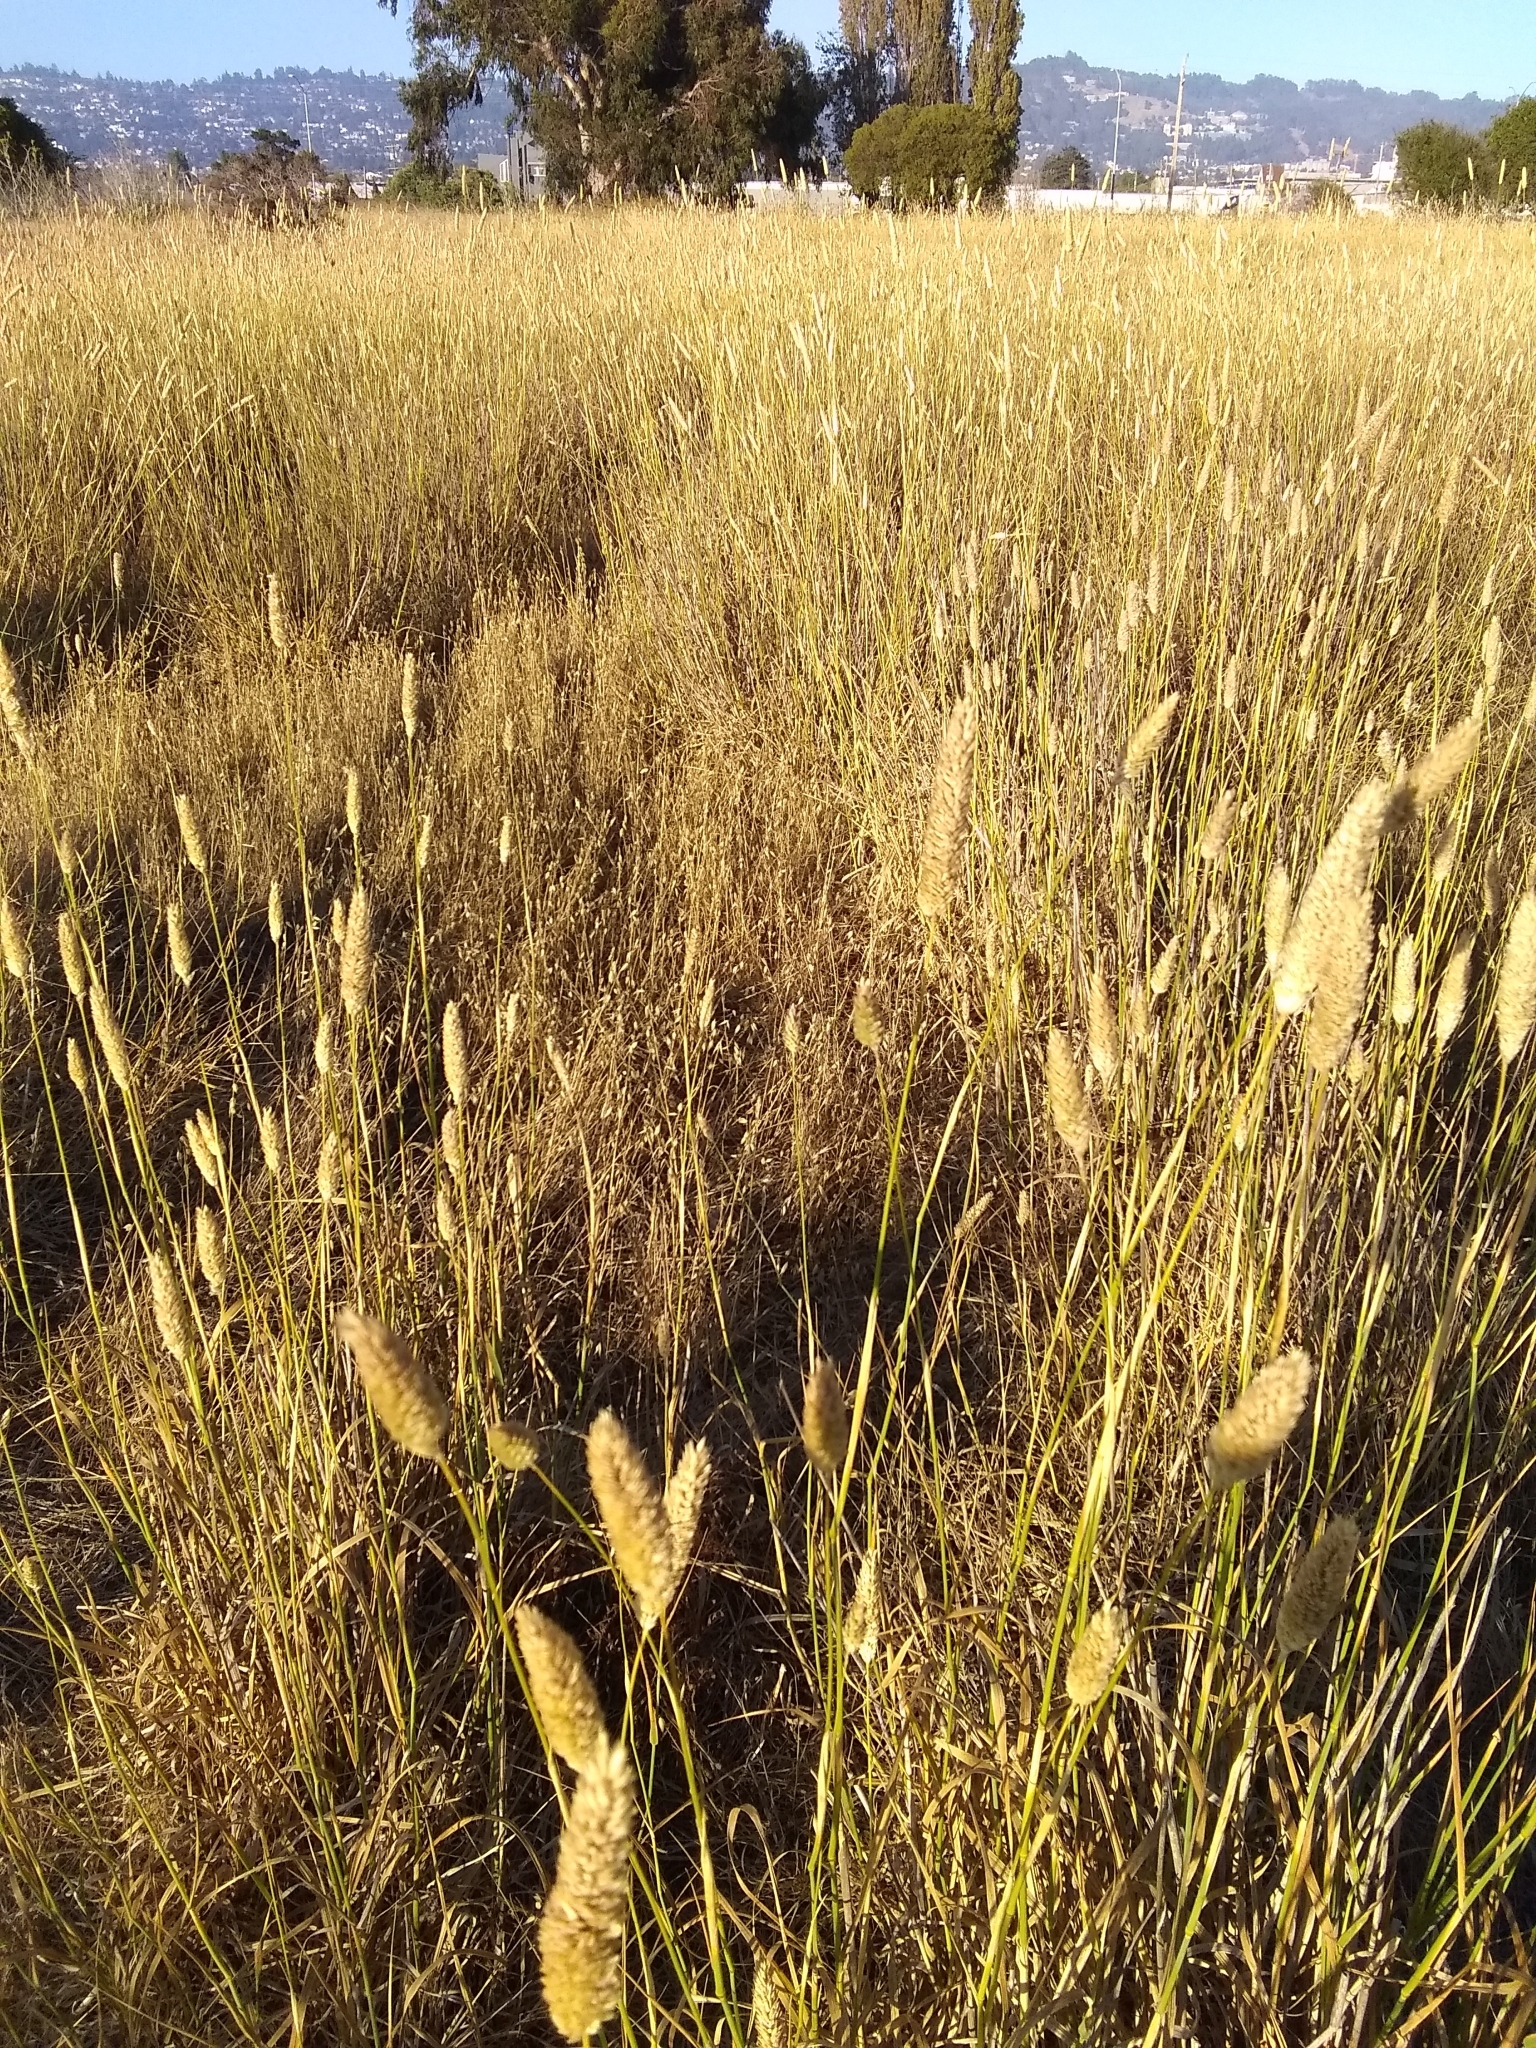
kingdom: Plantae
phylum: Tracheophyta
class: Liliopsida
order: Poales
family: Poaceae
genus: Phalaris
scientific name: Phalaris aquatica
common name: Bulbous canary-grass
